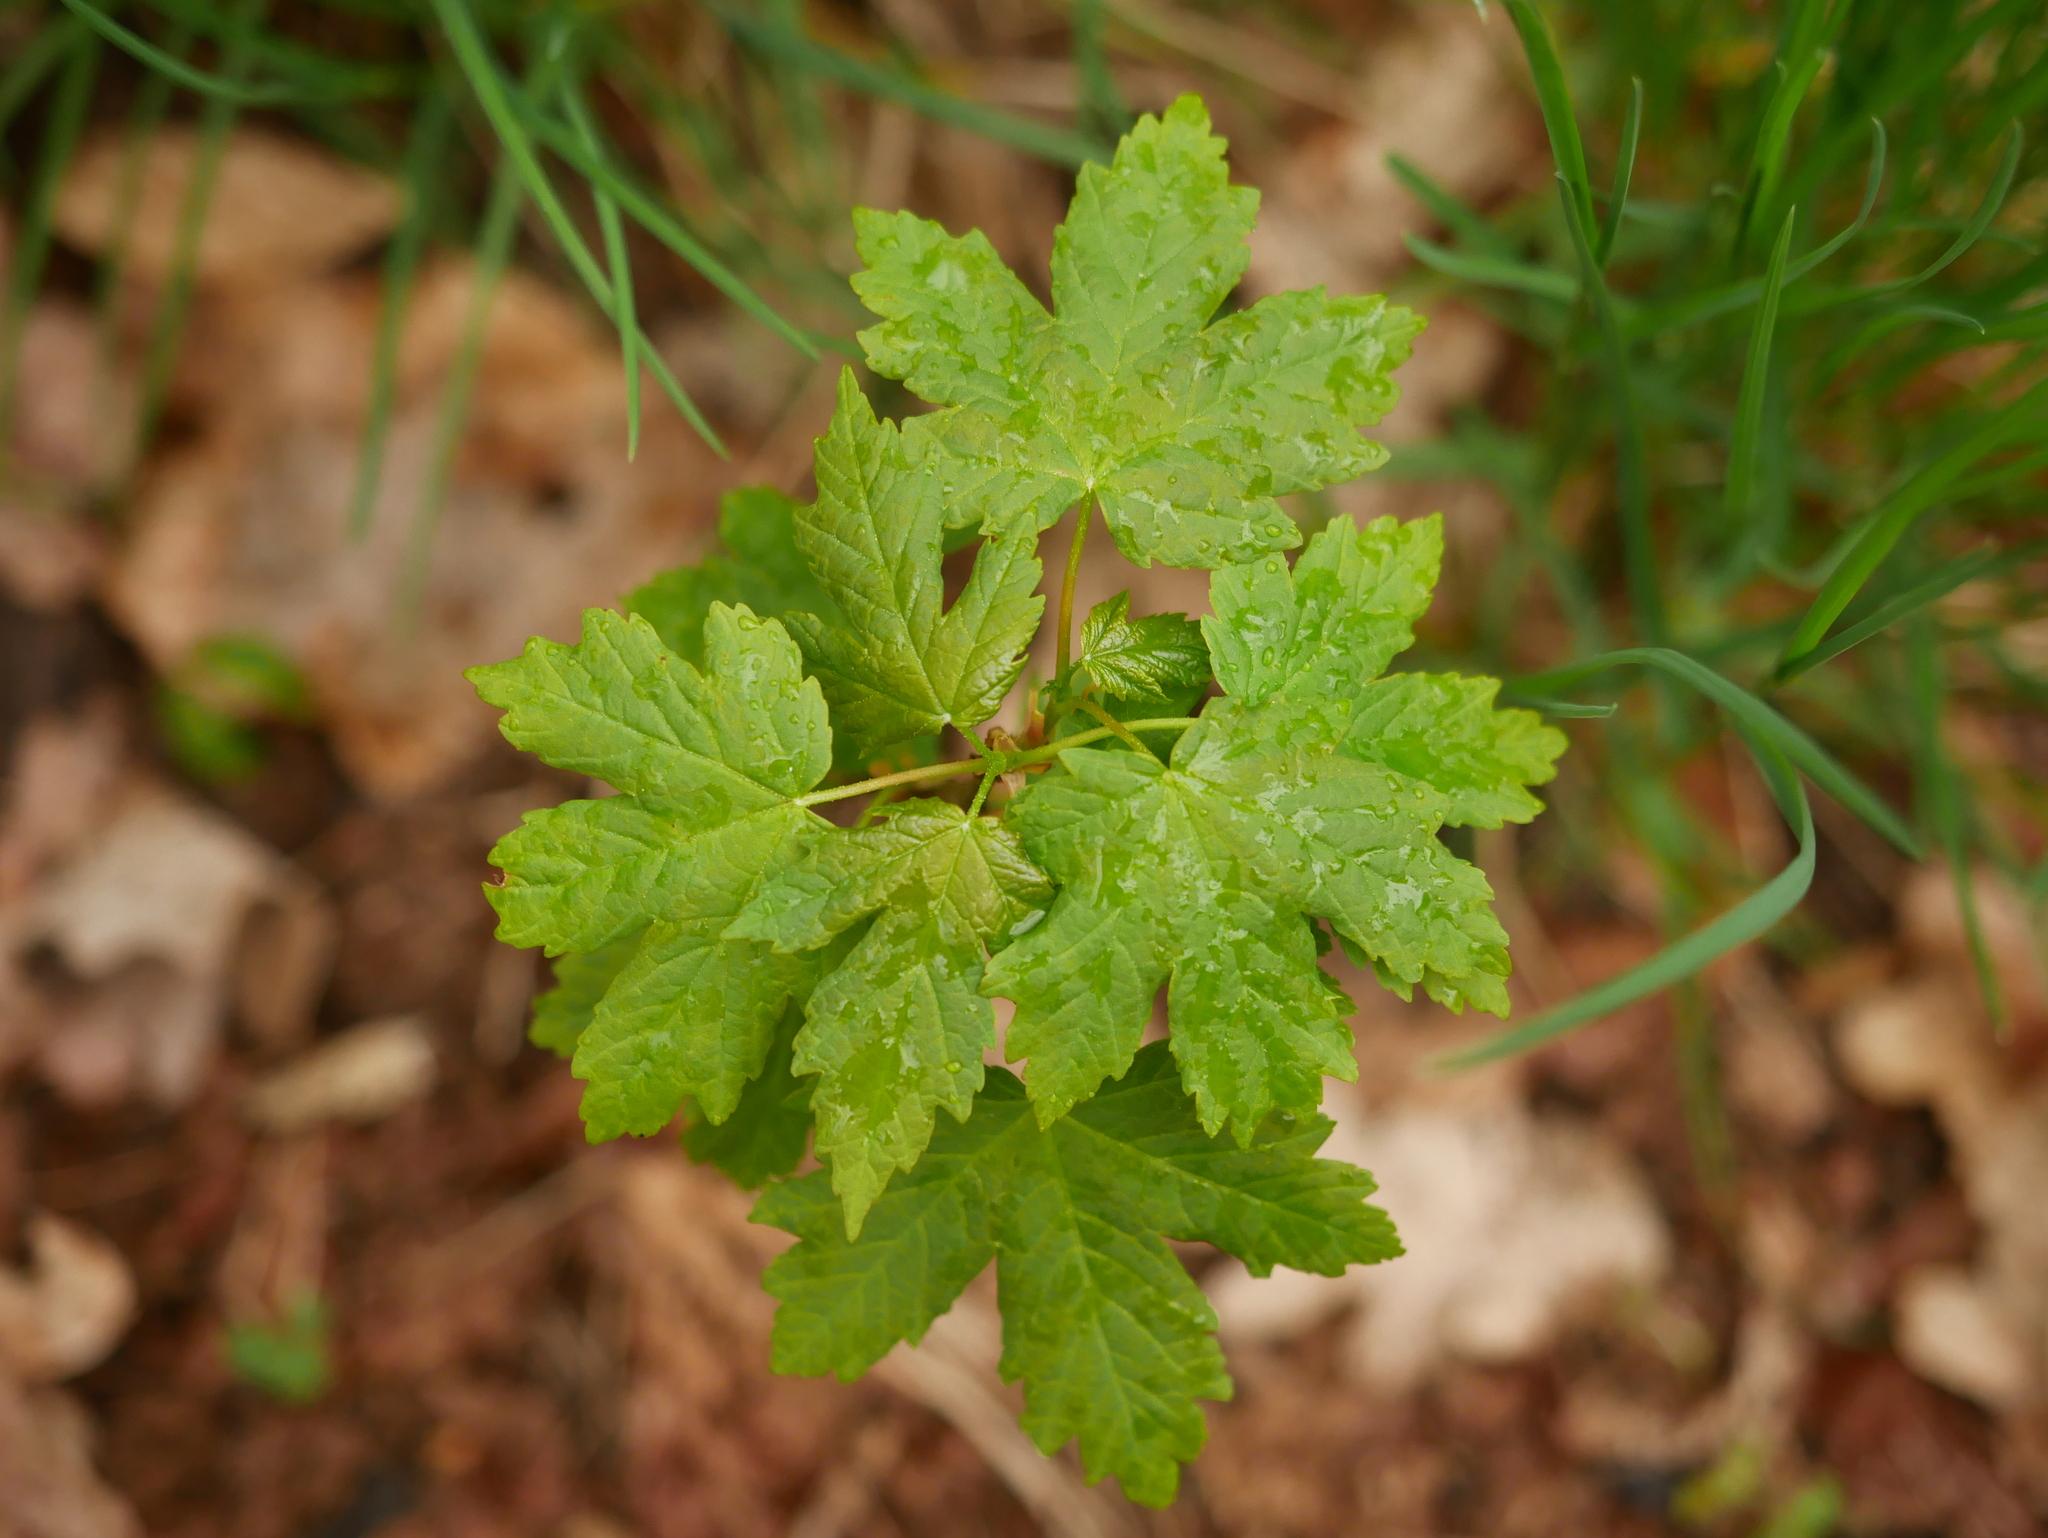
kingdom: Plantae
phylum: Tracheophyta
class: Magnoliopsida
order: Sapindales
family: Sapindaceae
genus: Acer
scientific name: Acer pseudoplatanus
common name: Sycamore
